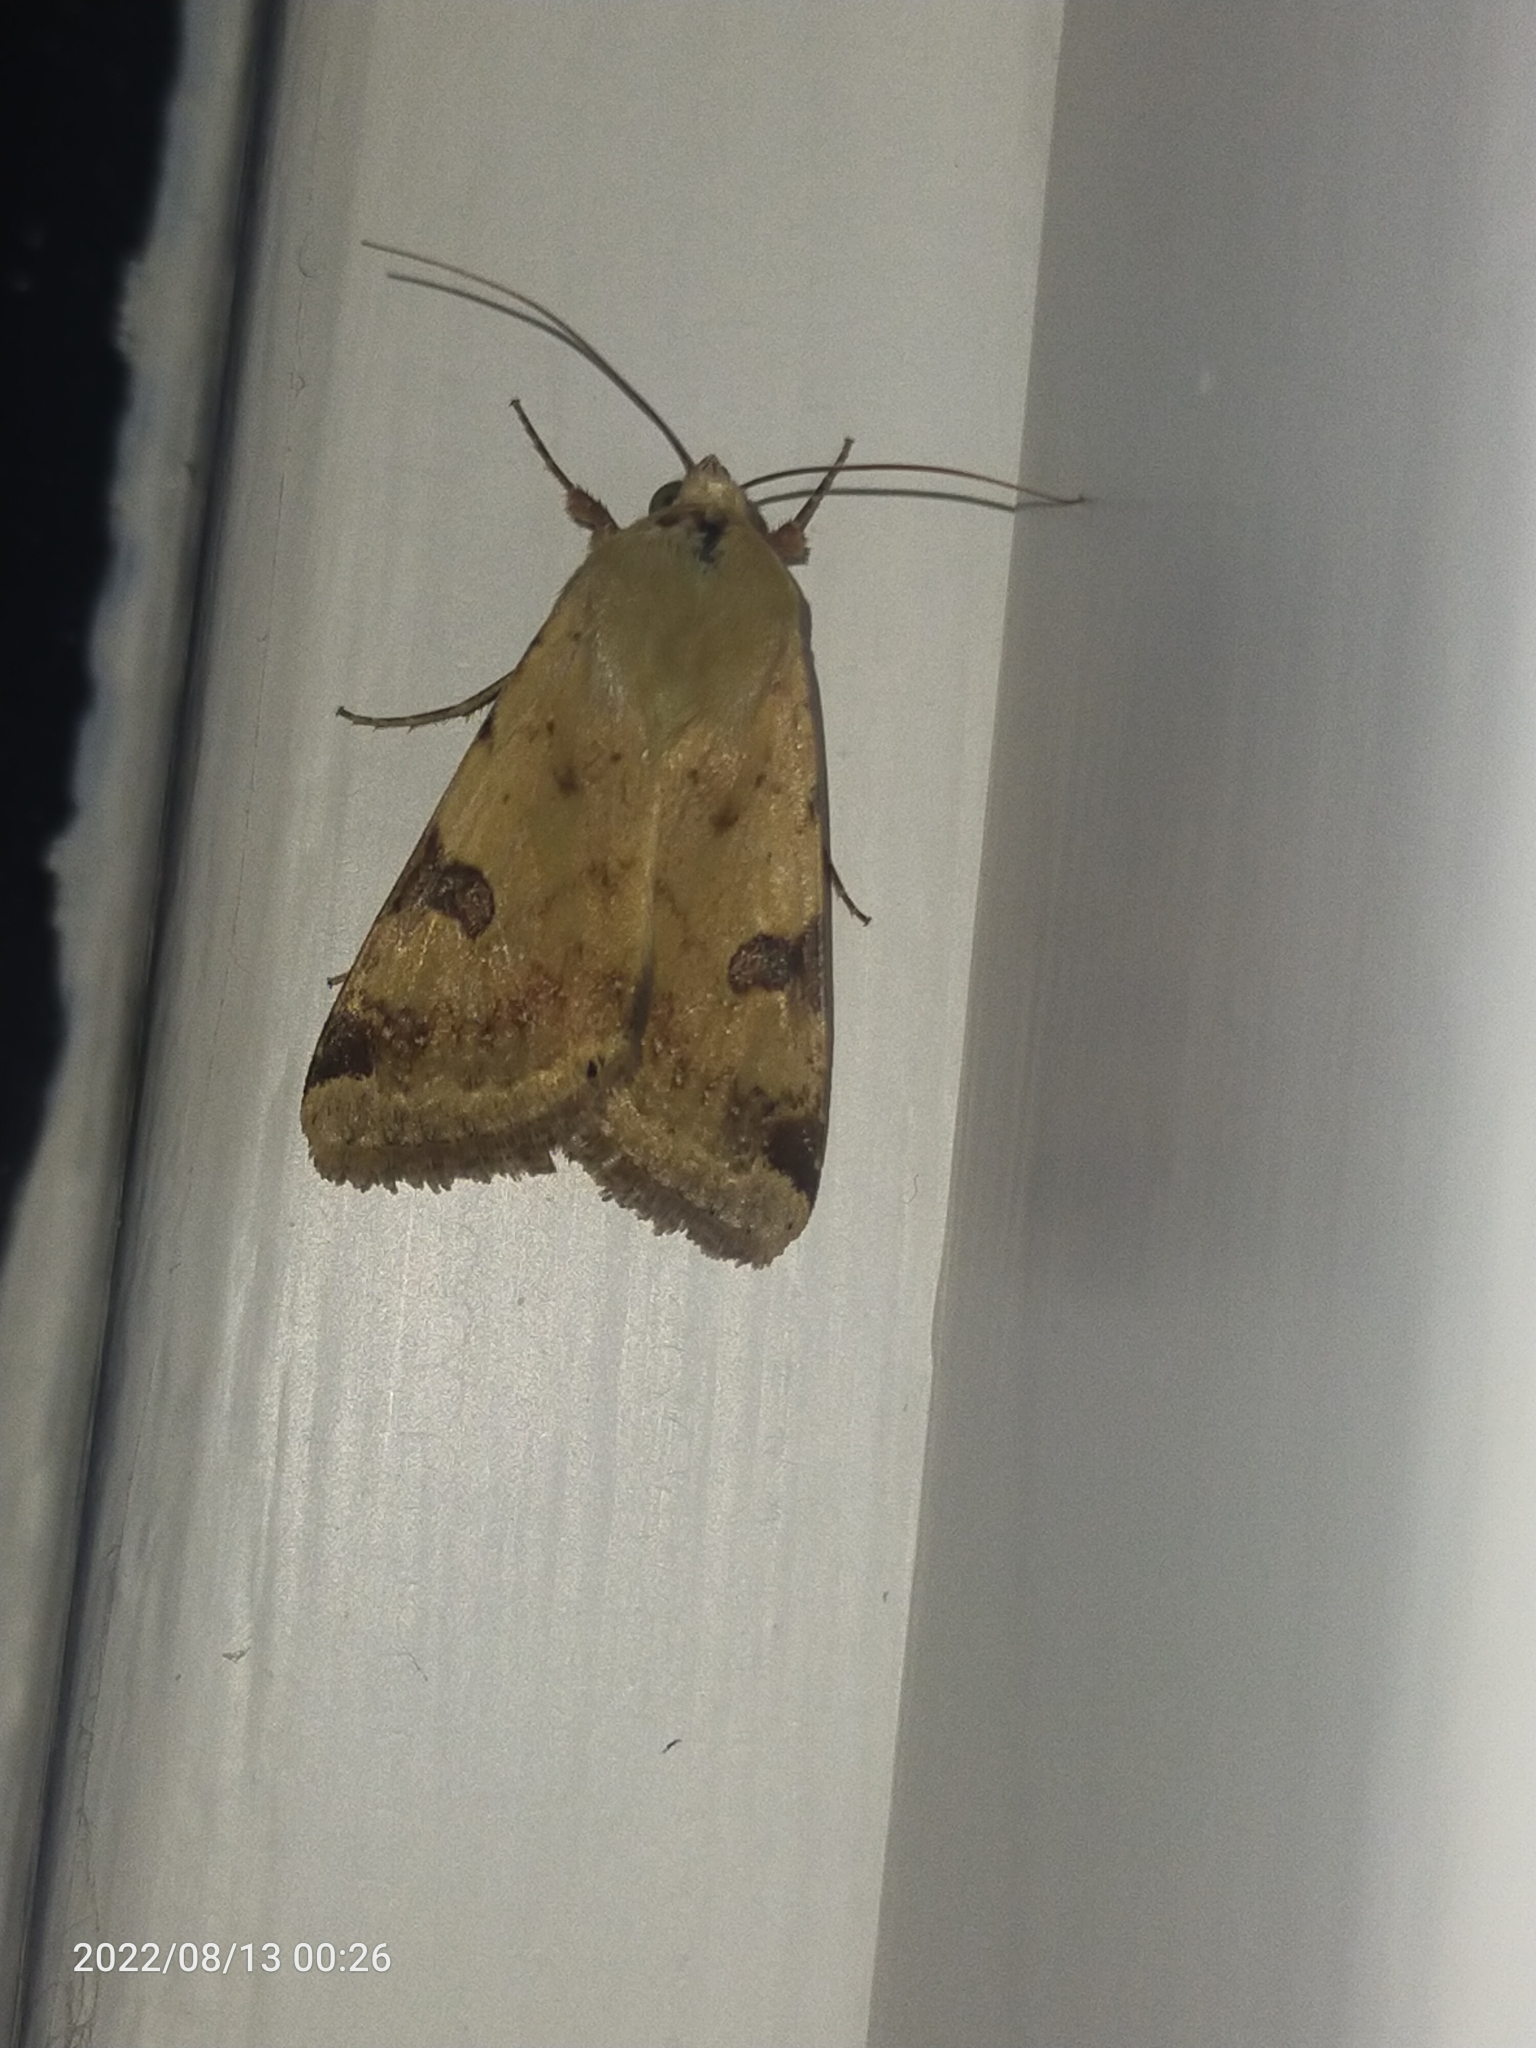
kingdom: Animalia
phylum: Arthropoda
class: Insecta
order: Lepidoptera
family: Noctuidae
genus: Heliothis
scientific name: Heliothis peltigera
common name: Bordered straw
